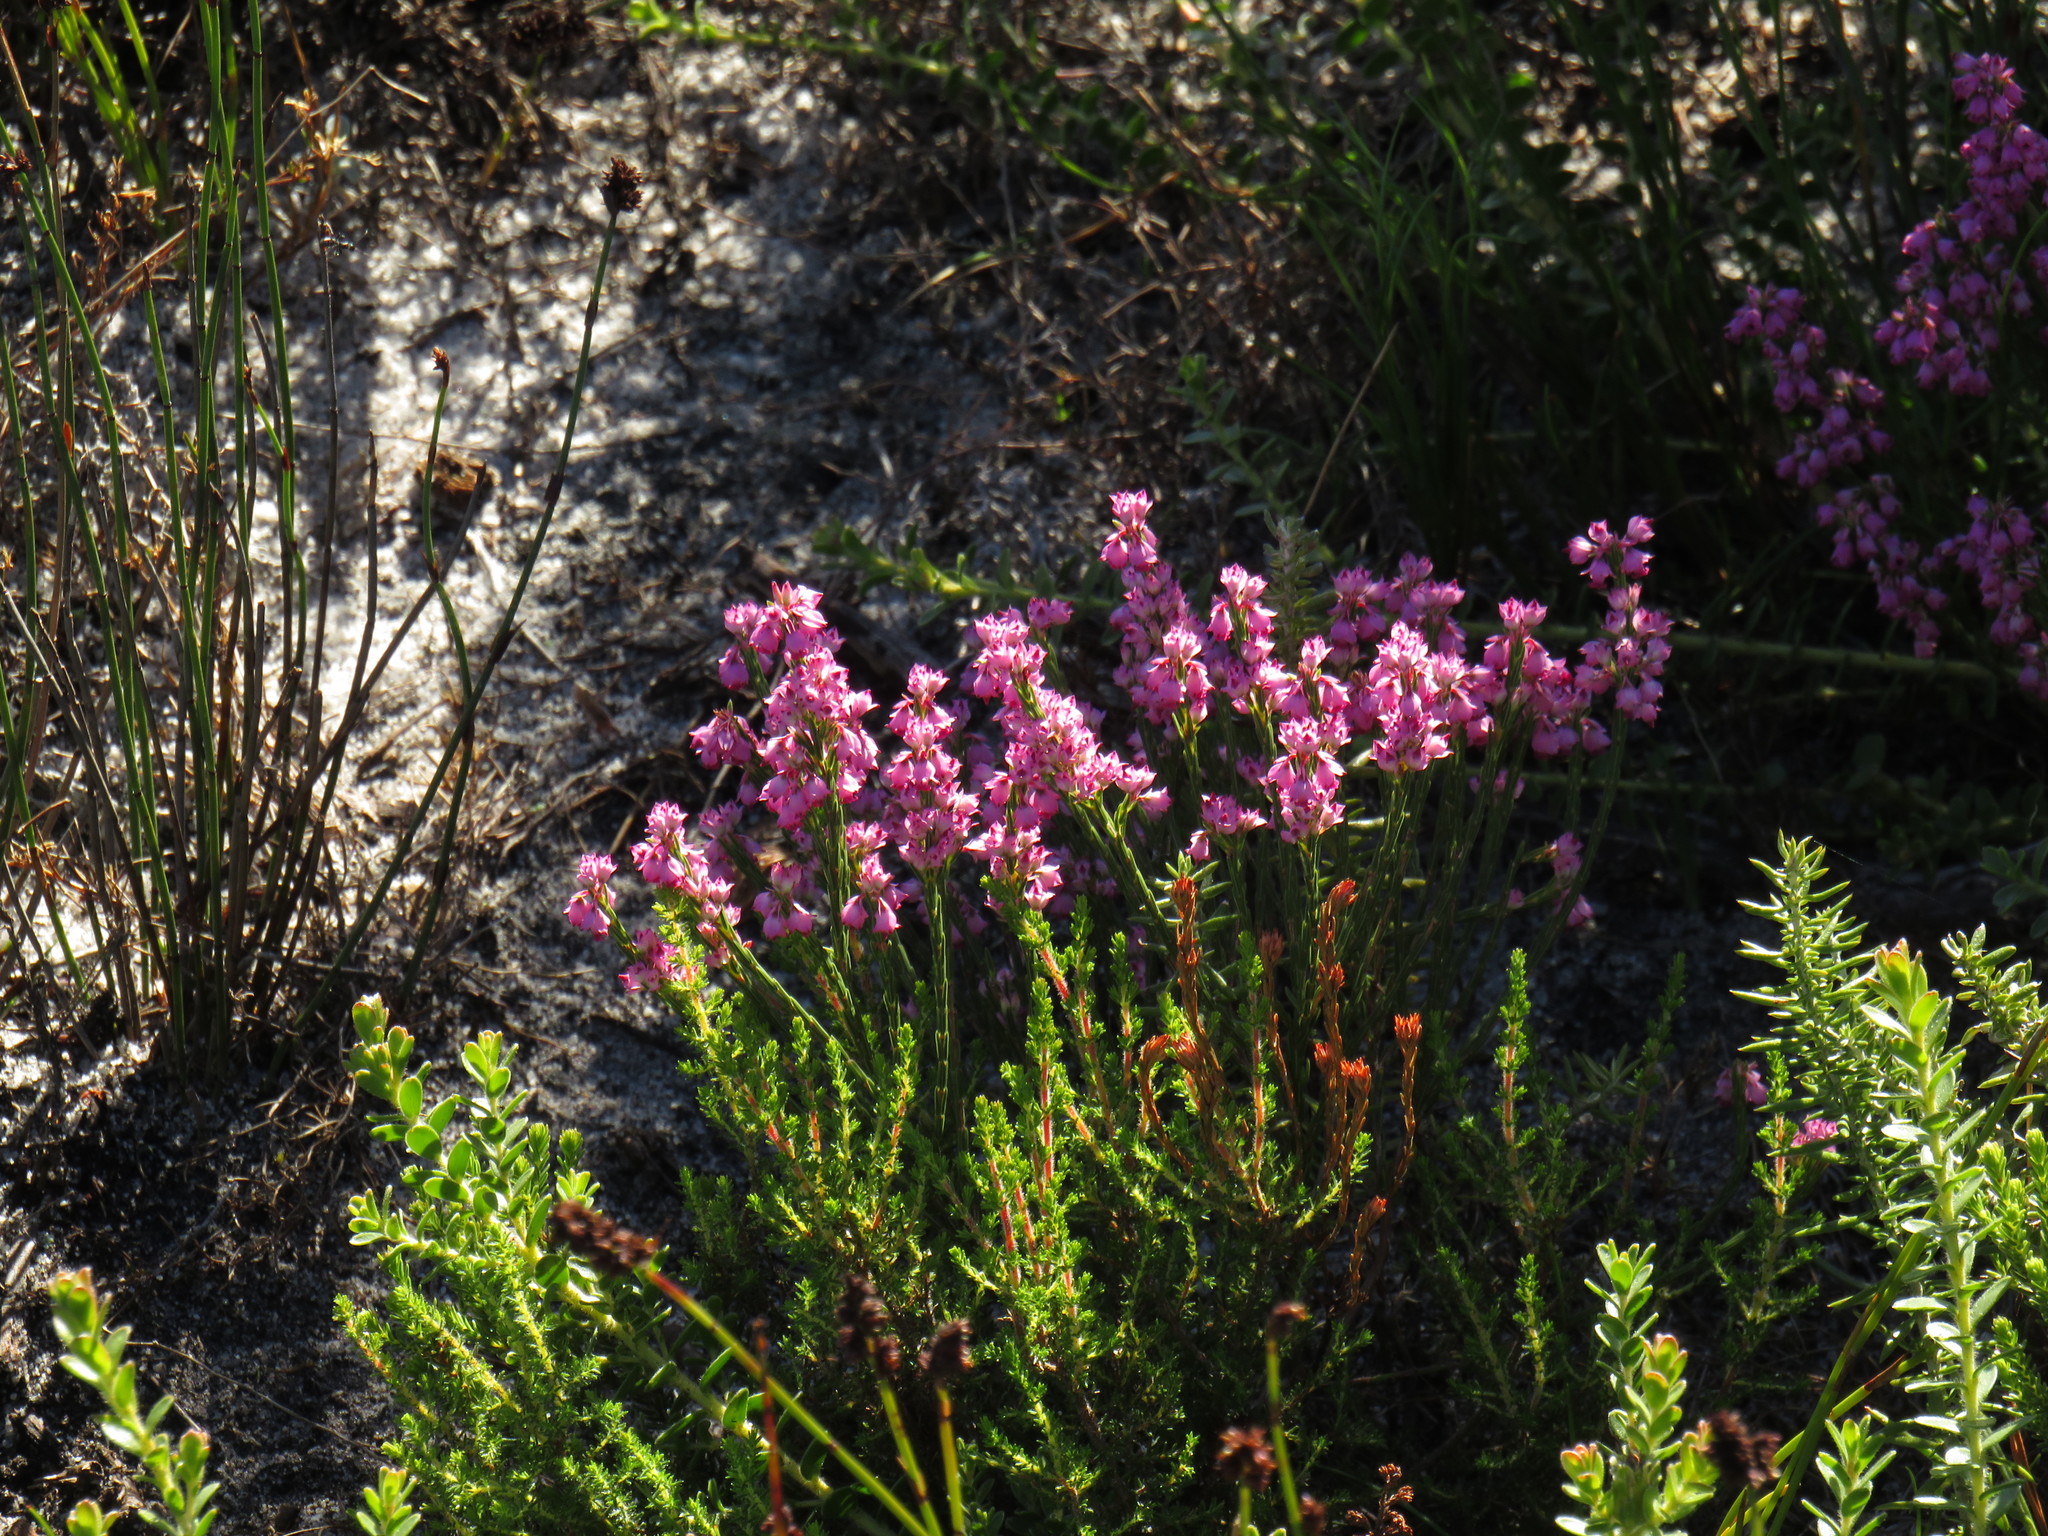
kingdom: Plantae
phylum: Tracheophyta
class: Magnoliopsida
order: Ericales
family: Ericaceae
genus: Erica
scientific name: Erica corifolia
